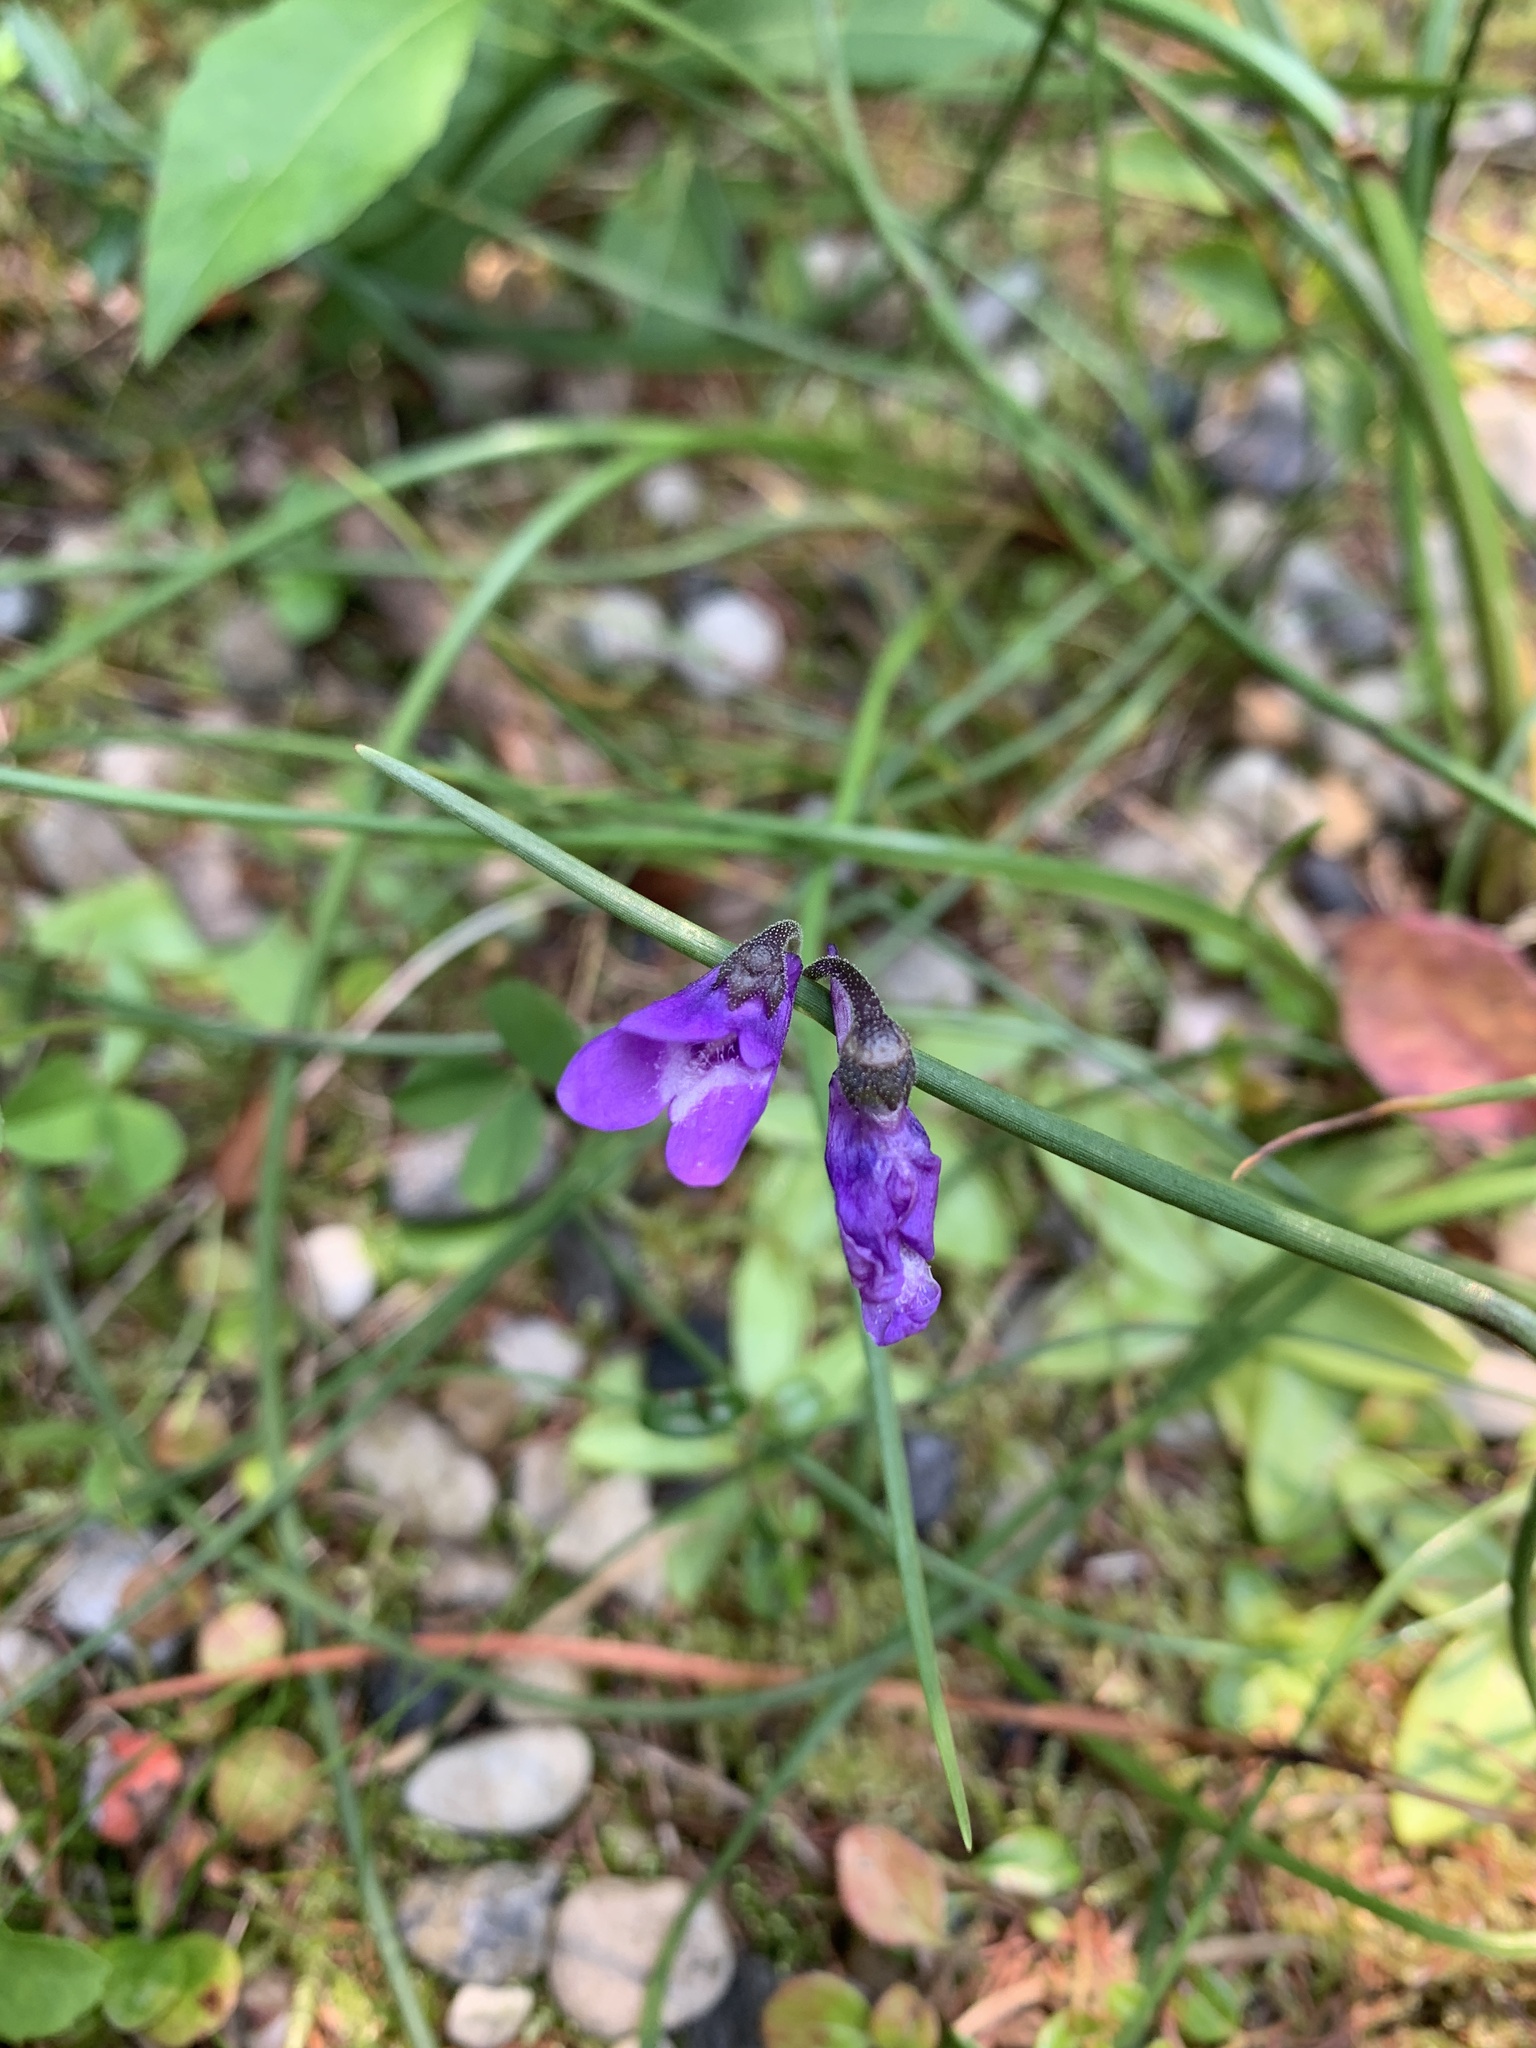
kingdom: Plantae
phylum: Tracheophyta
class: Magnoliopsida
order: Lamiales
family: Lentibulariaceae
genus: Pinguicula
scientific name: Pinguicula vulgaris
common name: Common butterwort
